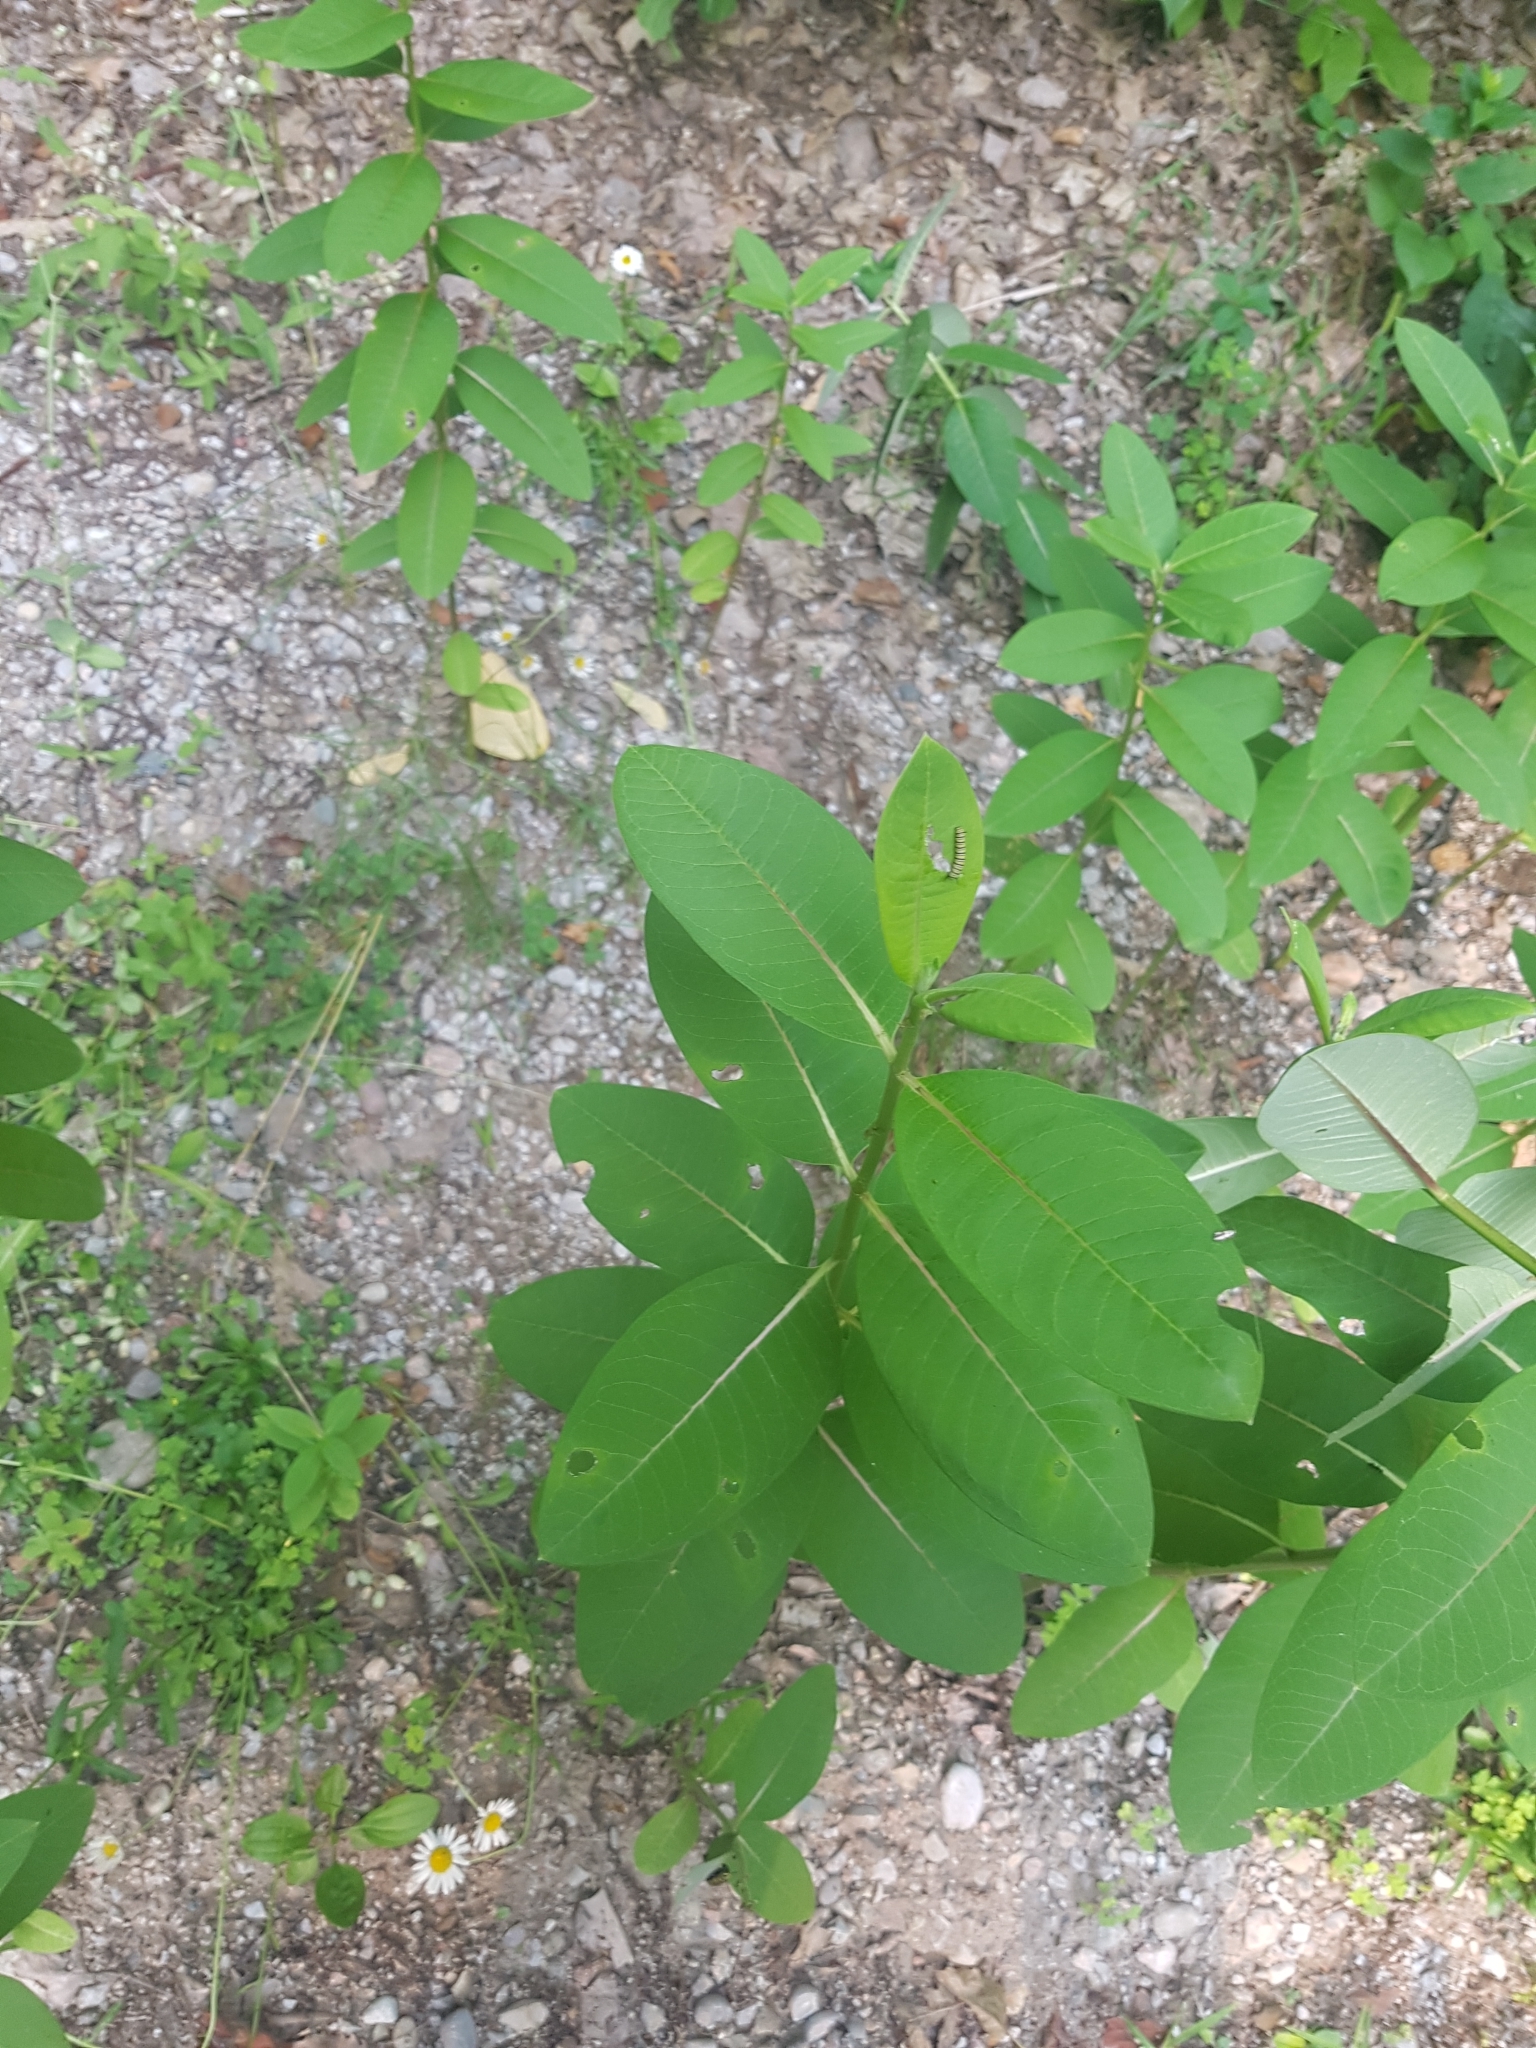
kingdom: Plantae
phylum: Tracheophyta
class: Magnoliopsida
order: Gentianales
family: Apocynaceae
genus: Asclepias
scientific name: Asclepias syriaca
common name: Common milkweed
